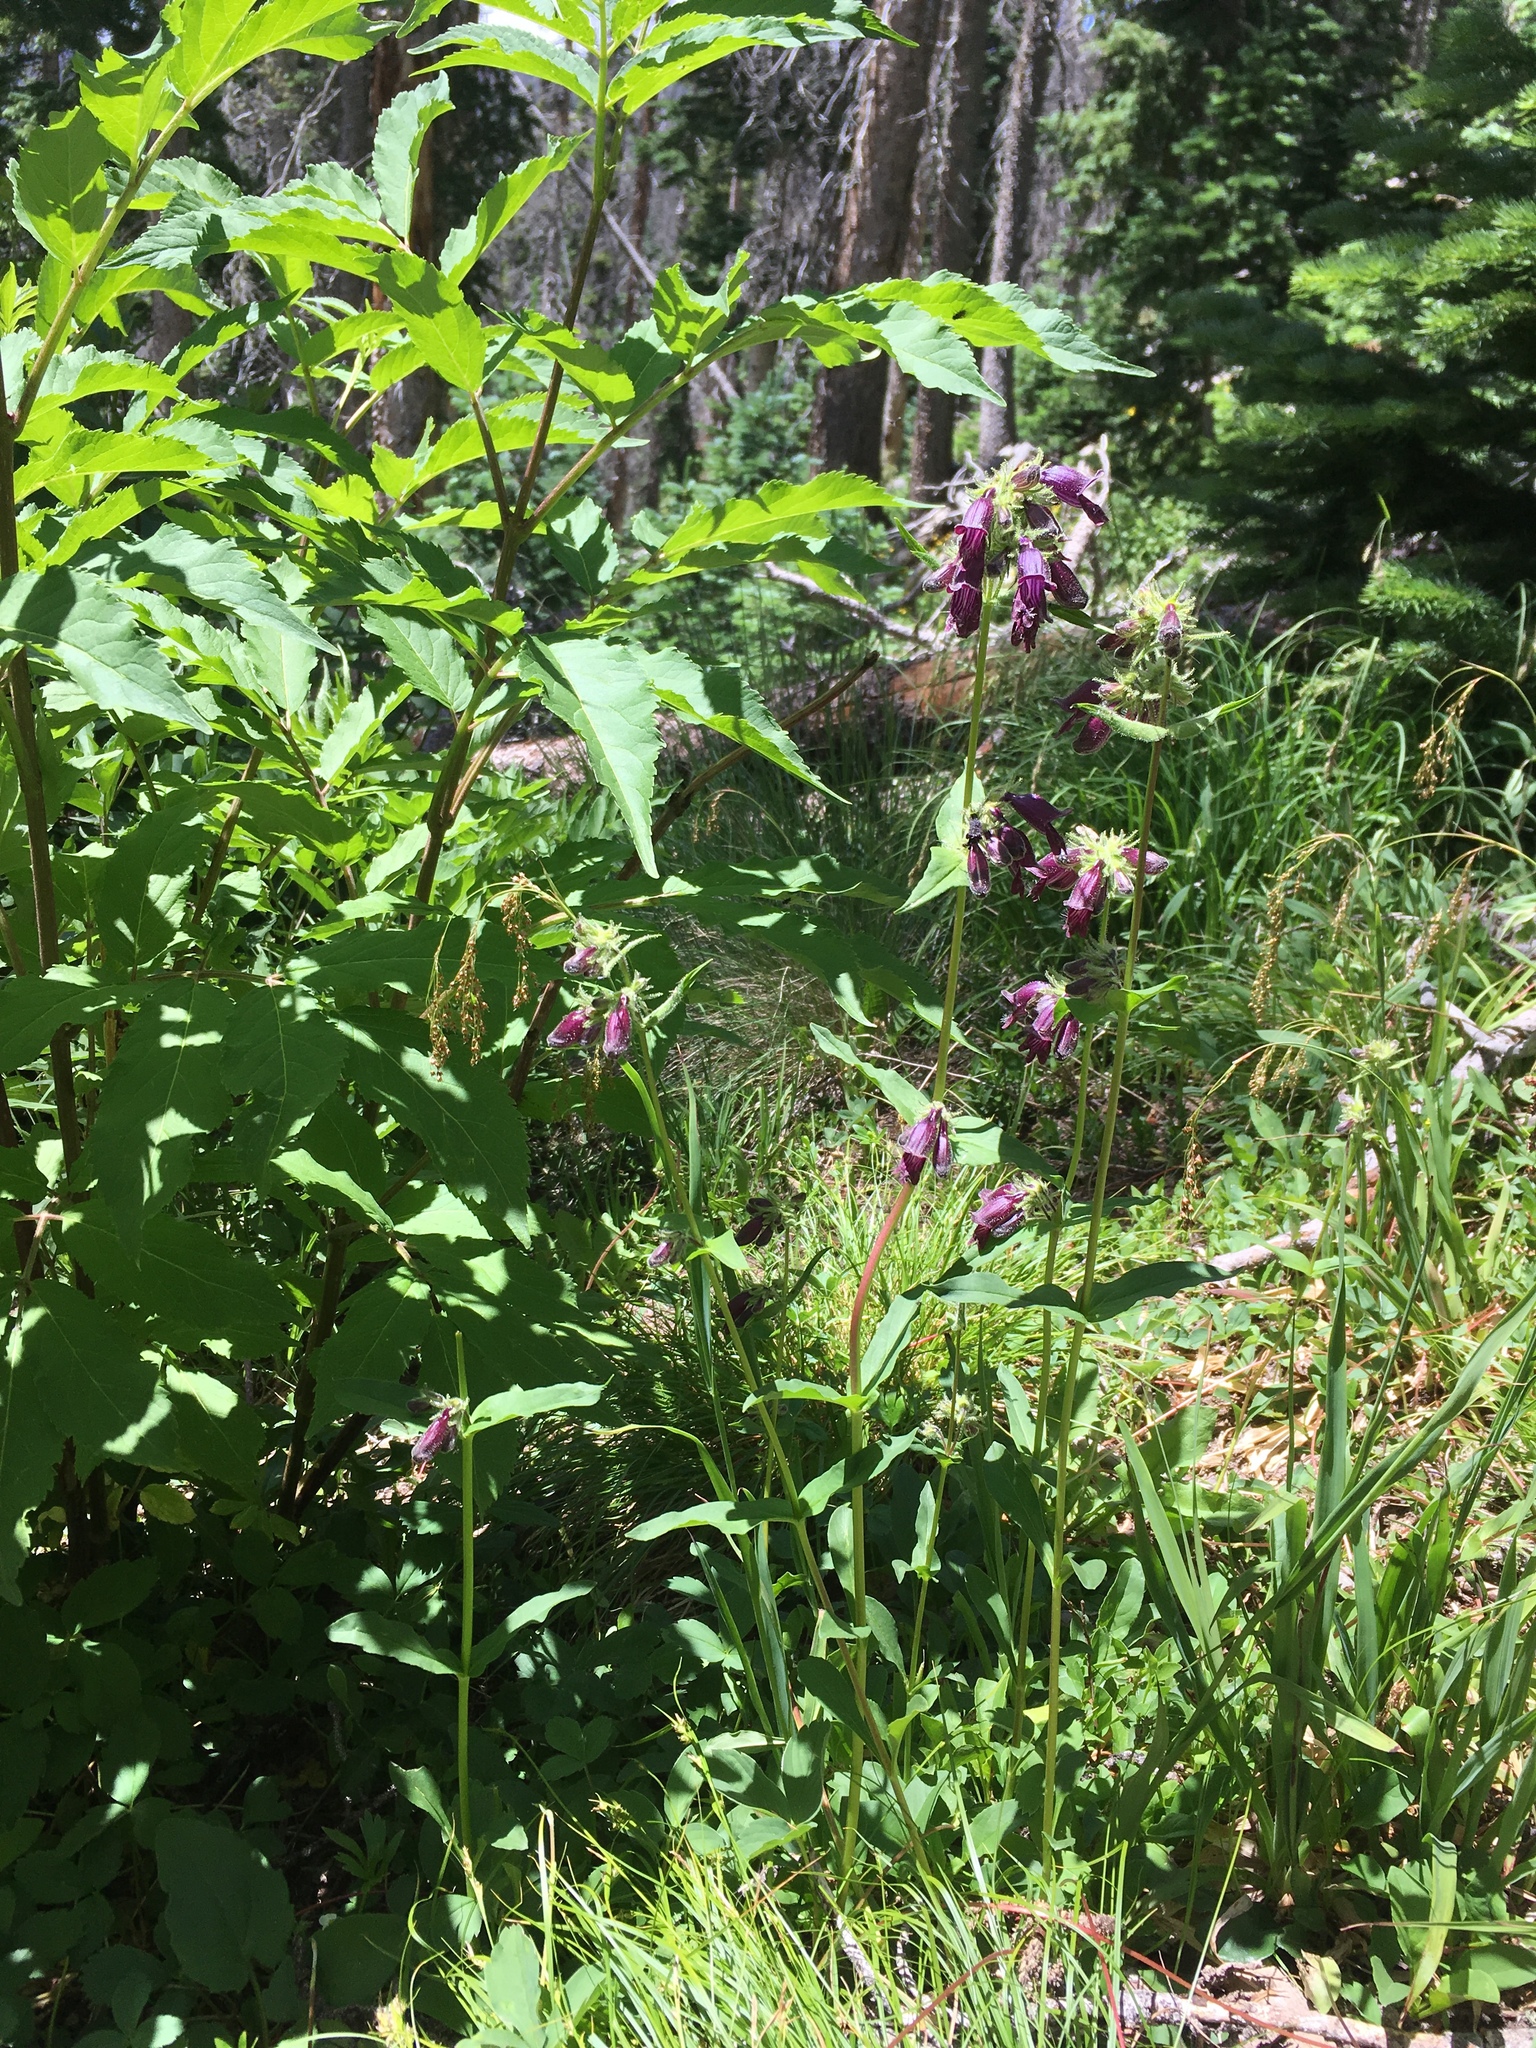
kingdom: Plantae
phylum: Tracheophyta
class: Magnoliopsida
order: Lamiales
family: Plantaginaceae
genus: Penstemon
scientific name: Penstemon whippleanus
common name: Whipple's penstemon
